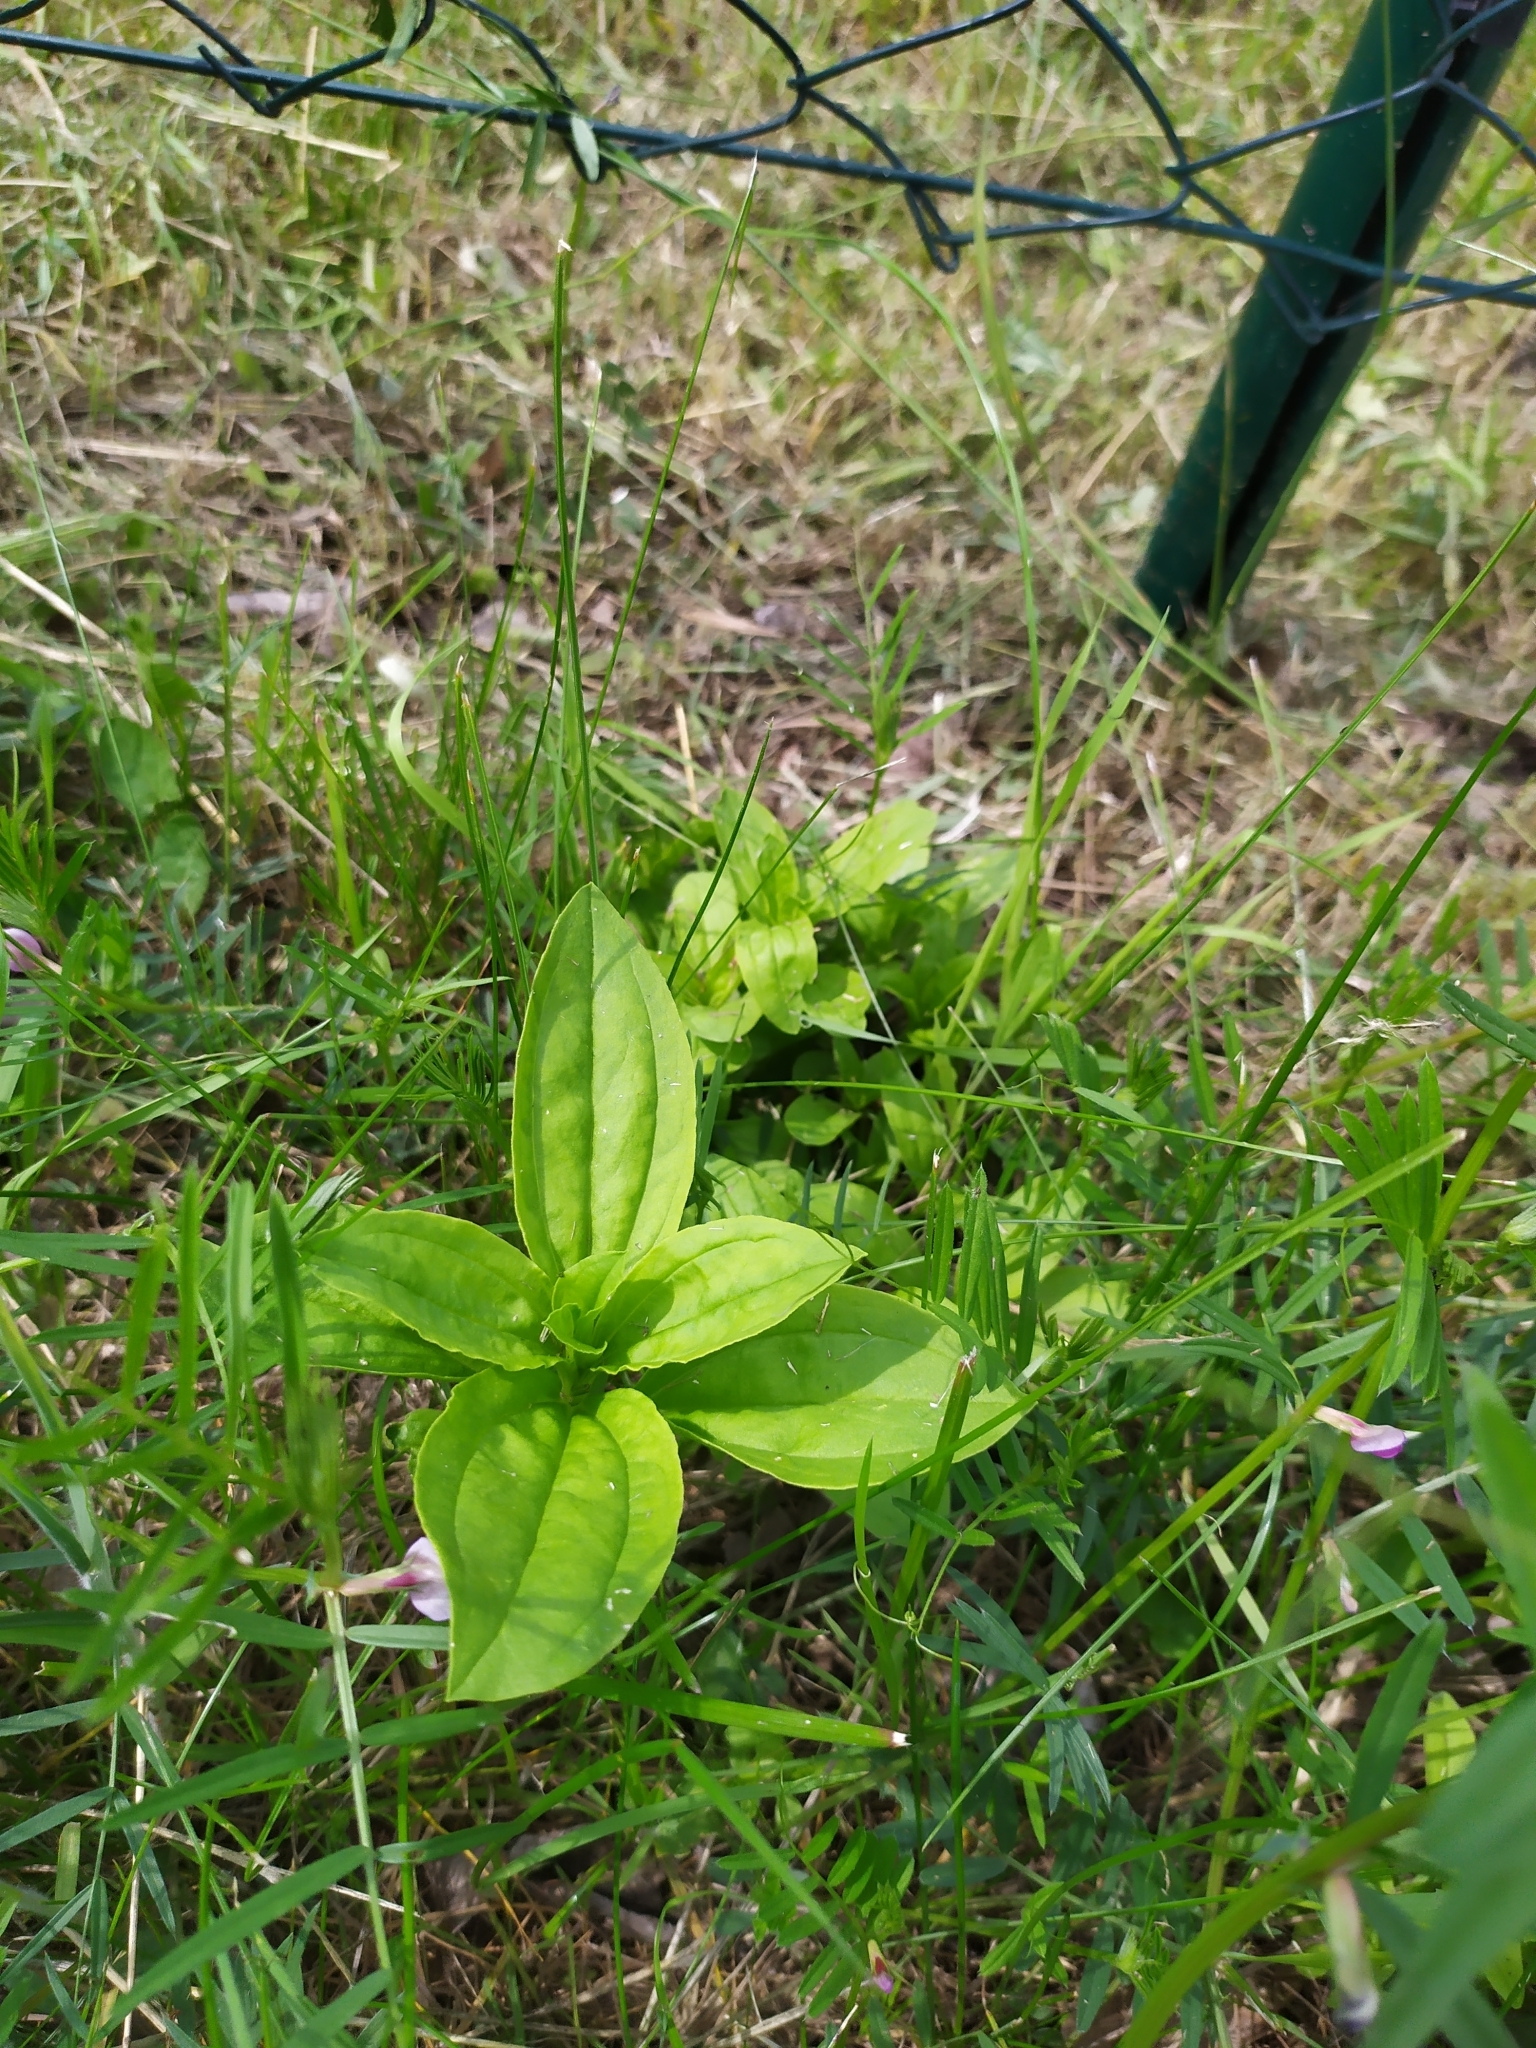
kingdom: Plantae
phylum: Tracheophyta
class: Magnoliopsida
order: Caryophyllales
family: Caryophyllaceae
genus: Saponaria
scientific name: Saponaria officinalis
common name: Soapwort
